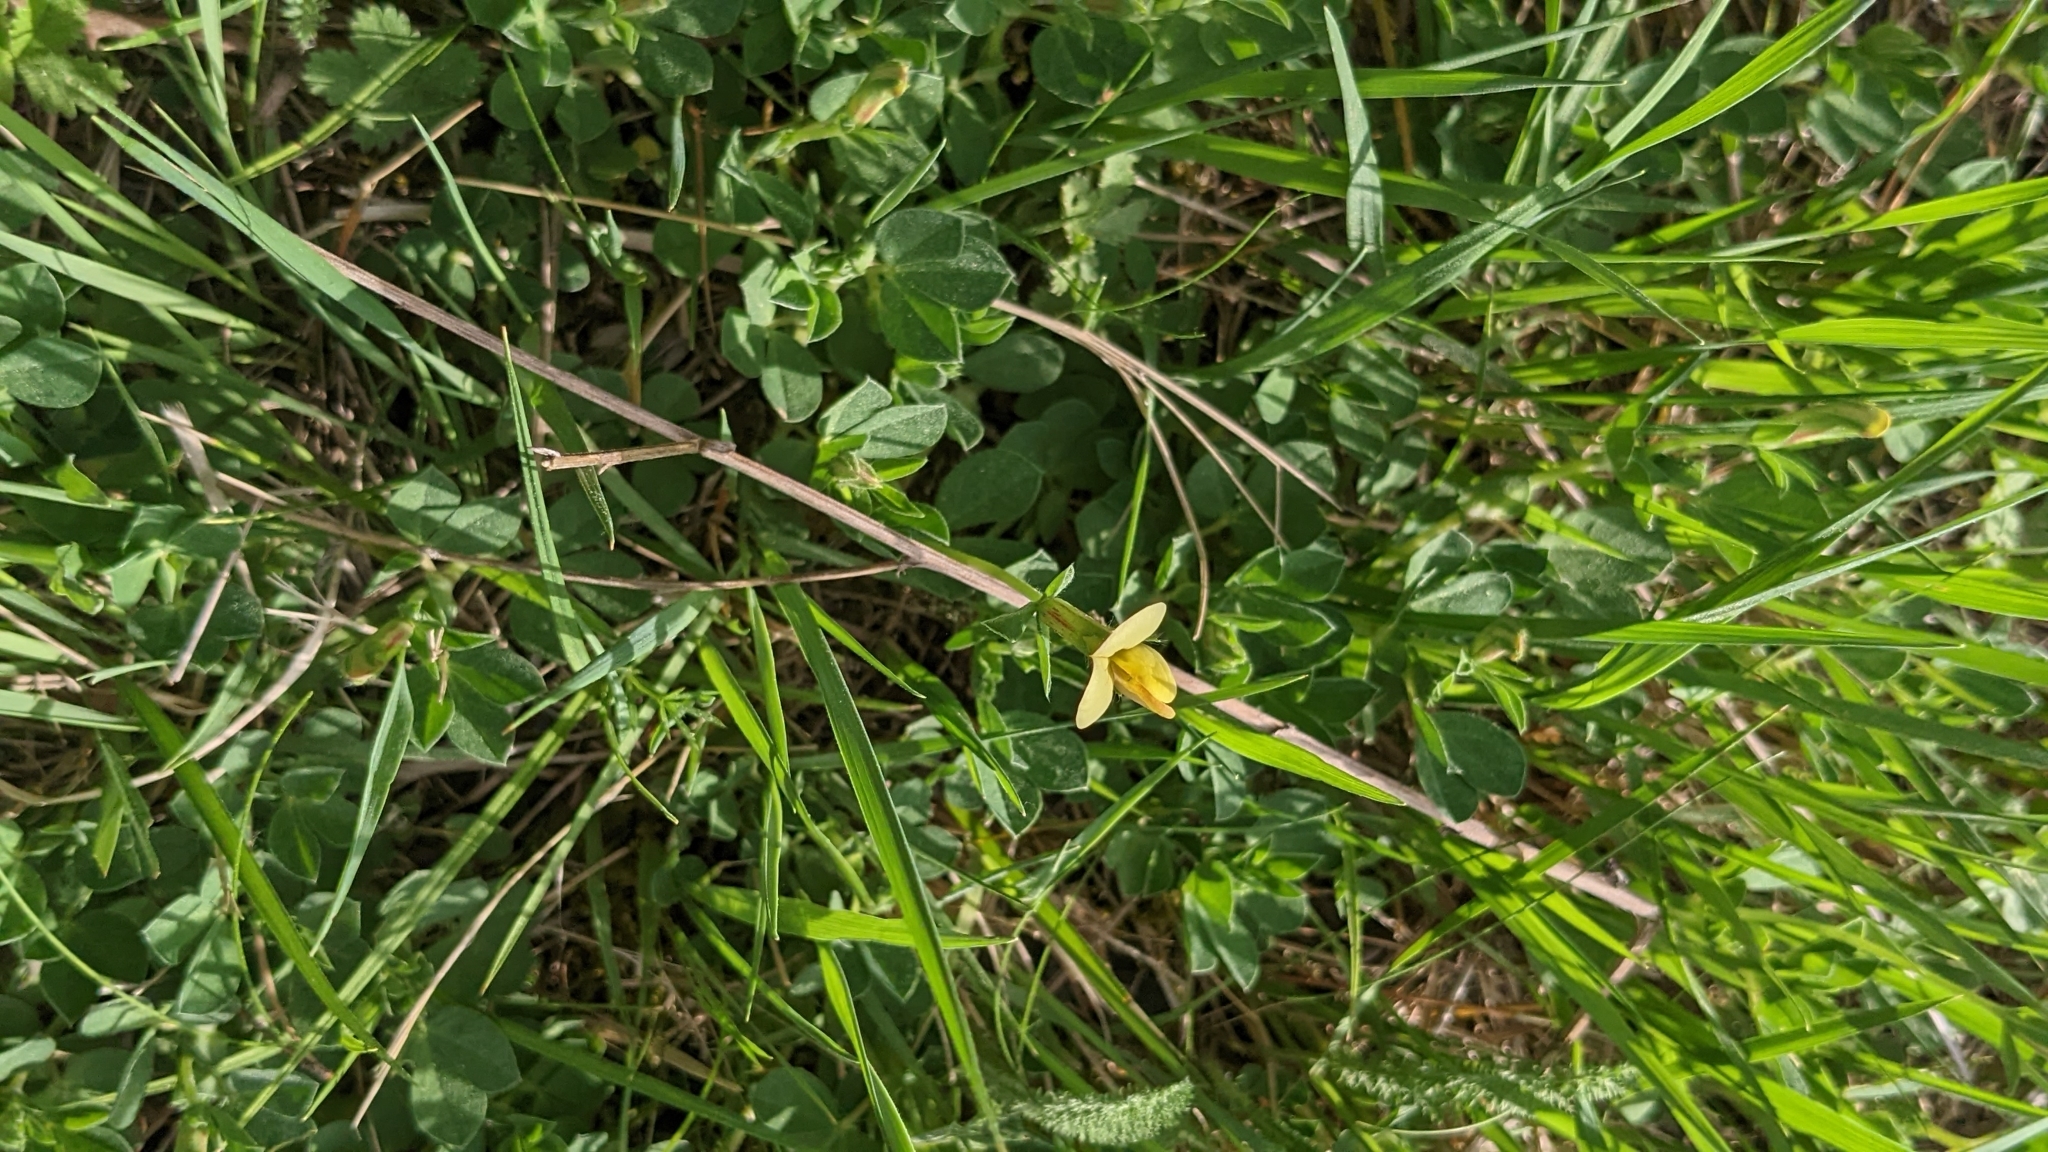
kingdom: Plantae
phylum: Tracheophyta
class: Magnoliopsida
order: Fabales
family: Fabaceae
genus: Lotus
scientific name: Lotus maritimus
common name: Dragon's-teeth
